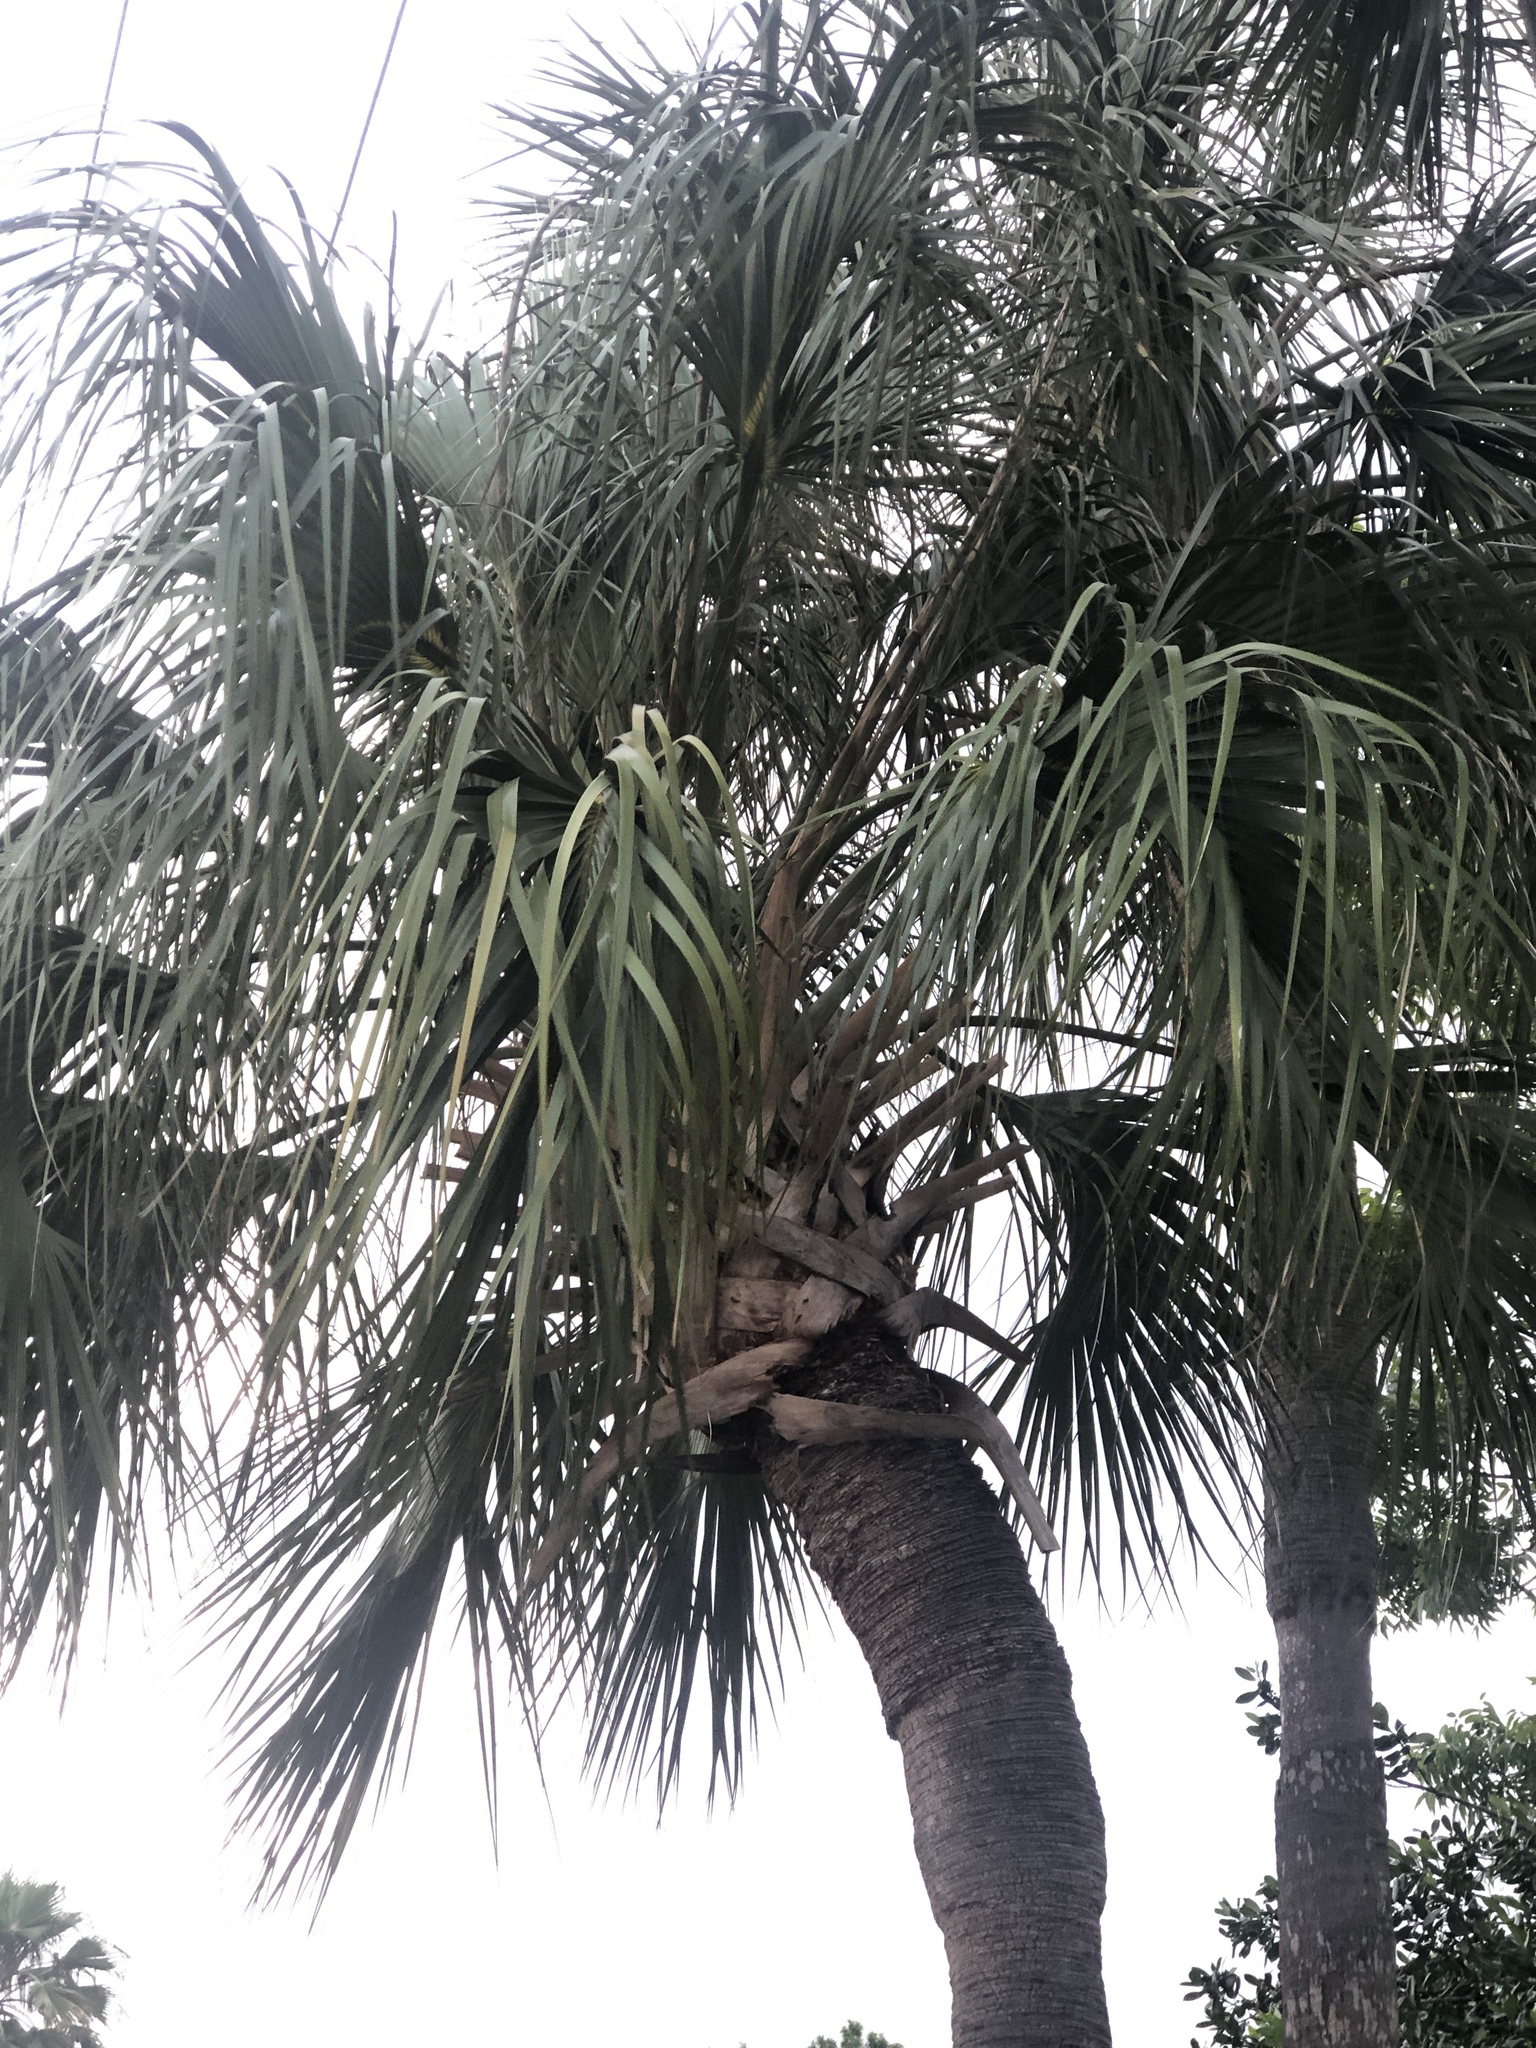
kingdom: Plantae
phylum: Tracheophyta
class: Liliopsida
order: Arecales
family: Arecaceae
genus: Sabal
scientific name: Sabal palmetto
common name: Blue palmetto
